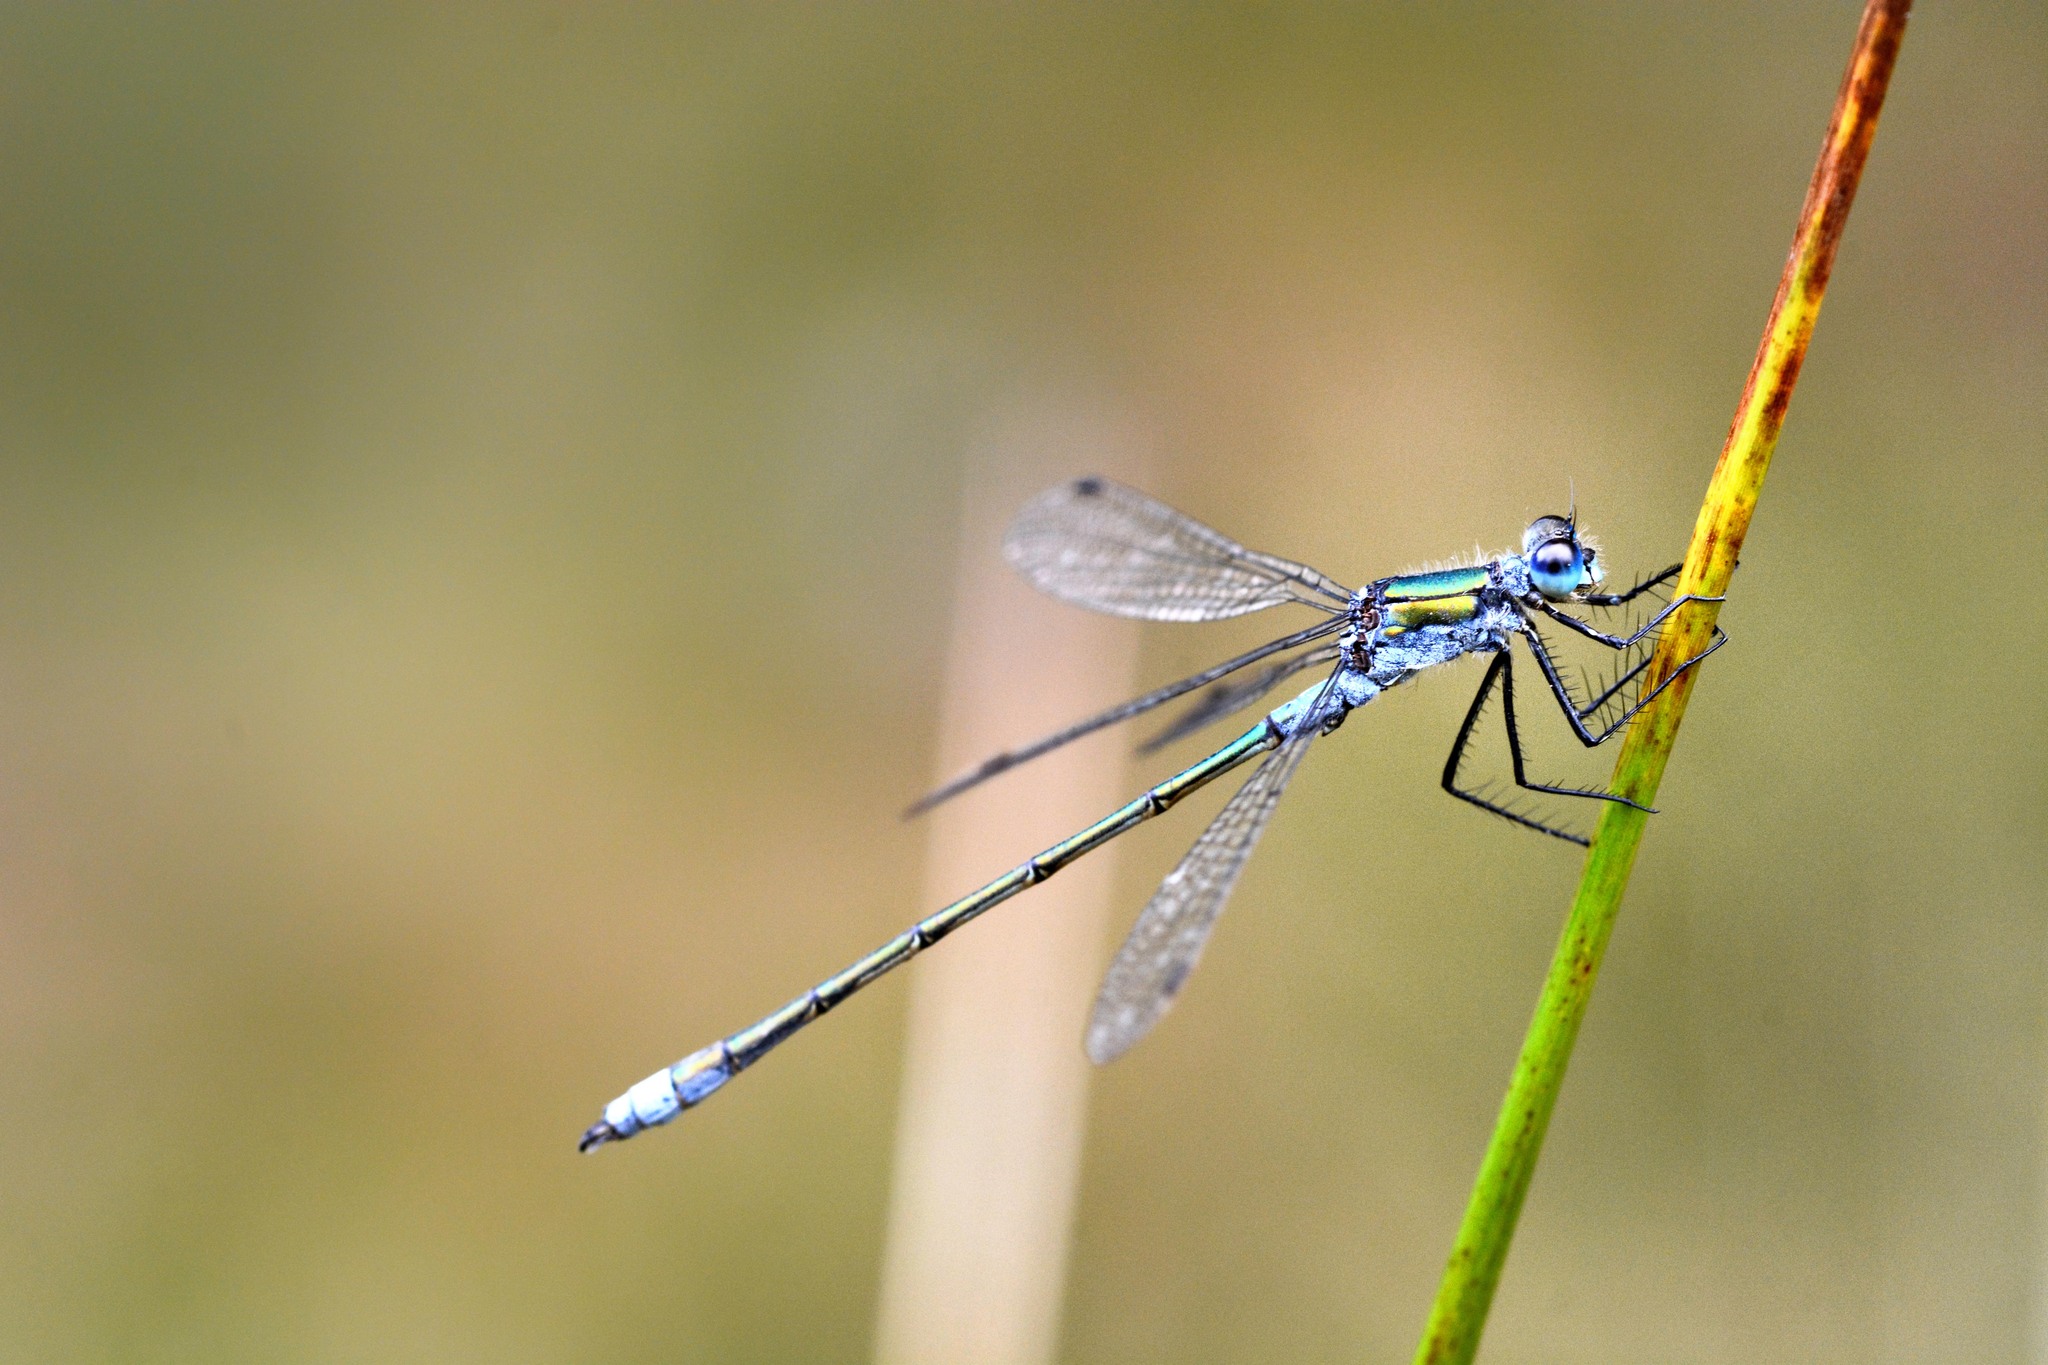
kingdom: Animalia
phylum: Arthropoda
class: Insecta
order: Odonata
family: Lestidae
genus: Lestes
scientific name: Lestes sponsa
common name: Common spreadwing
